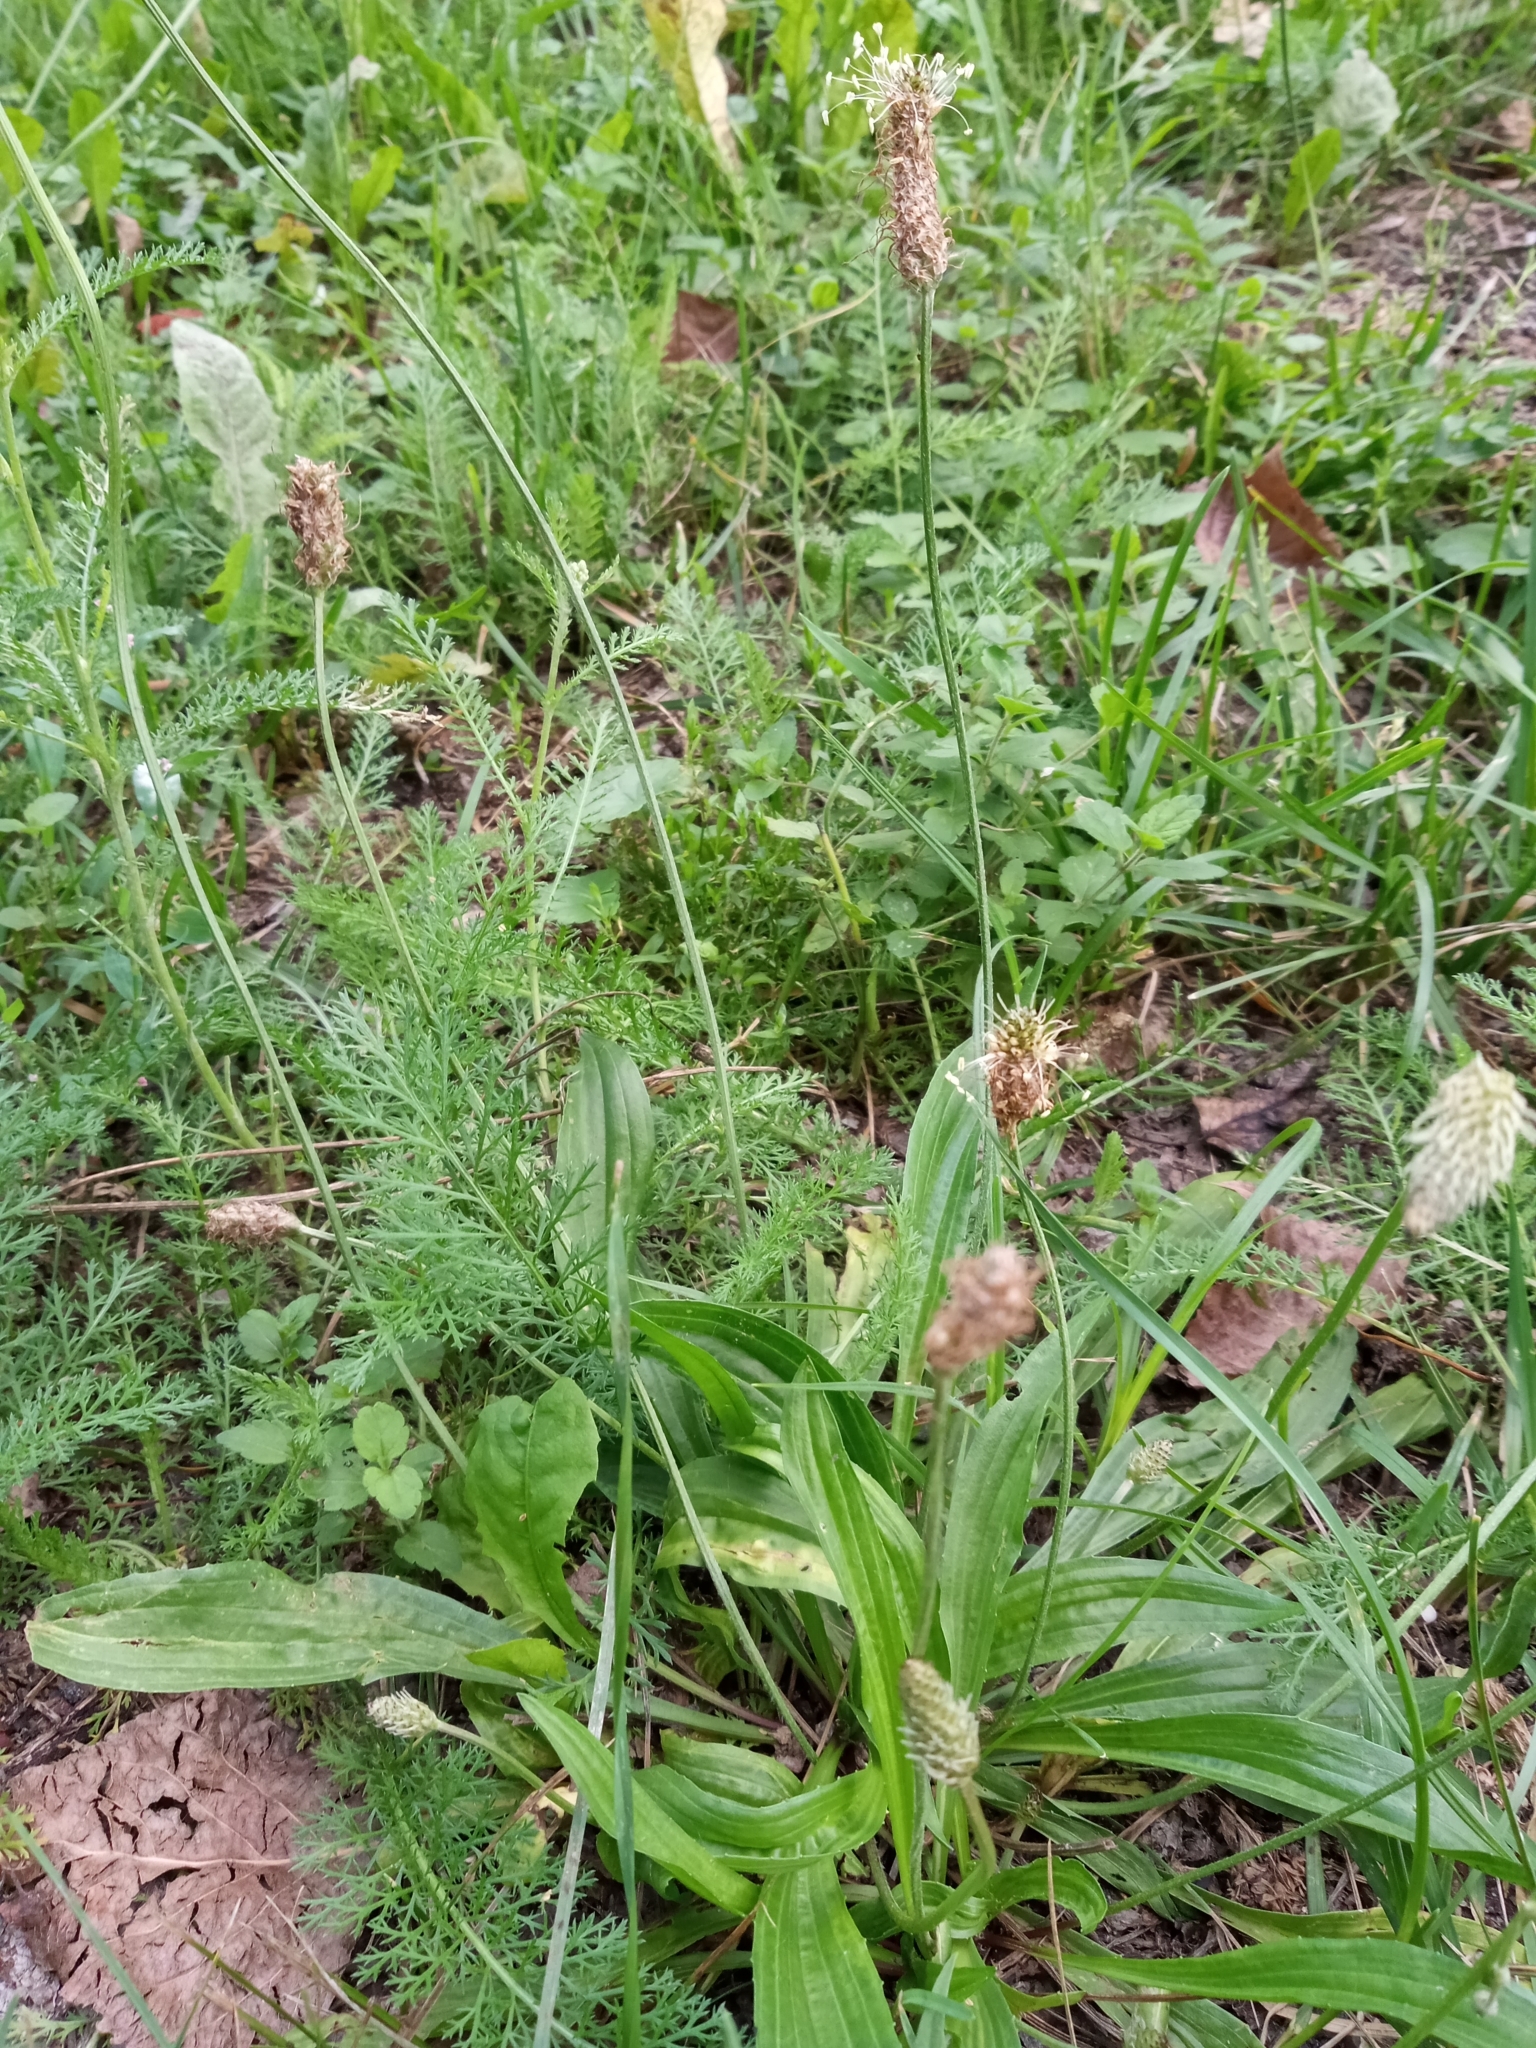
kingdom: Plantae
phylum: Tracheophyta
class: Magnoliopsida
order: Lamiales
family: Plantaginaceae
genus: Plantago
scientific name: Plantago lanceolata
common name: Ribwort plantain
